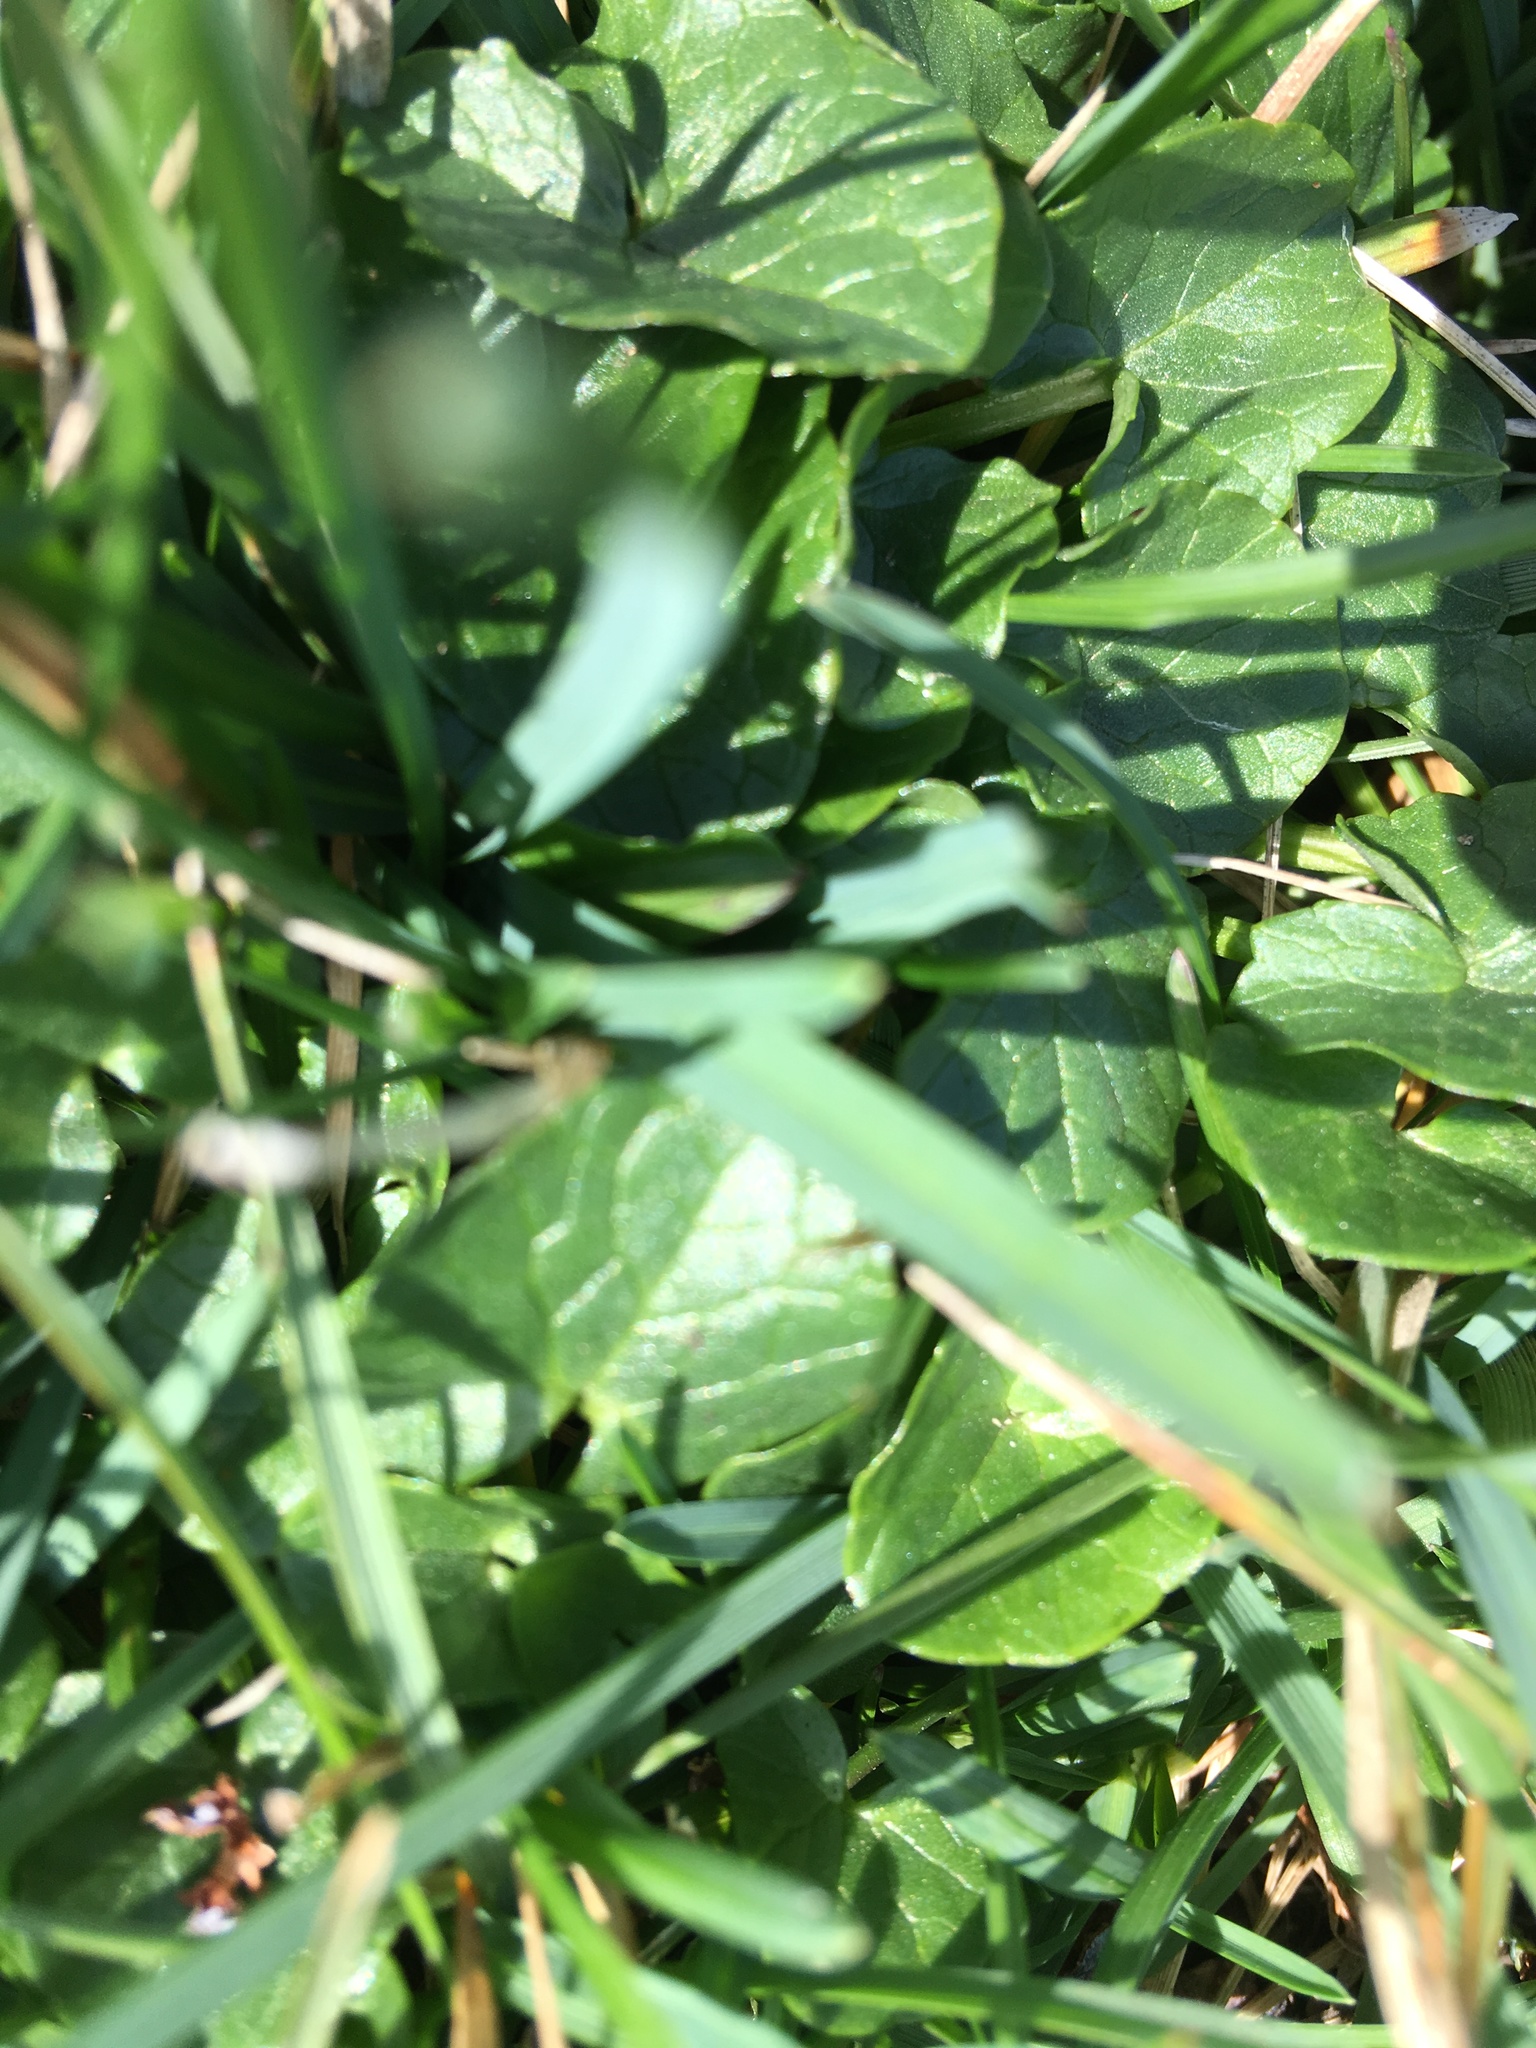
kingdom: Plantae
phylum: Tracheophyta
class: Magnoliopsida
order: Ranunculales
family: Ranunculaceae
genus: Ficaria
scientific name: Ficaria verna
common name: Lesser celandine
